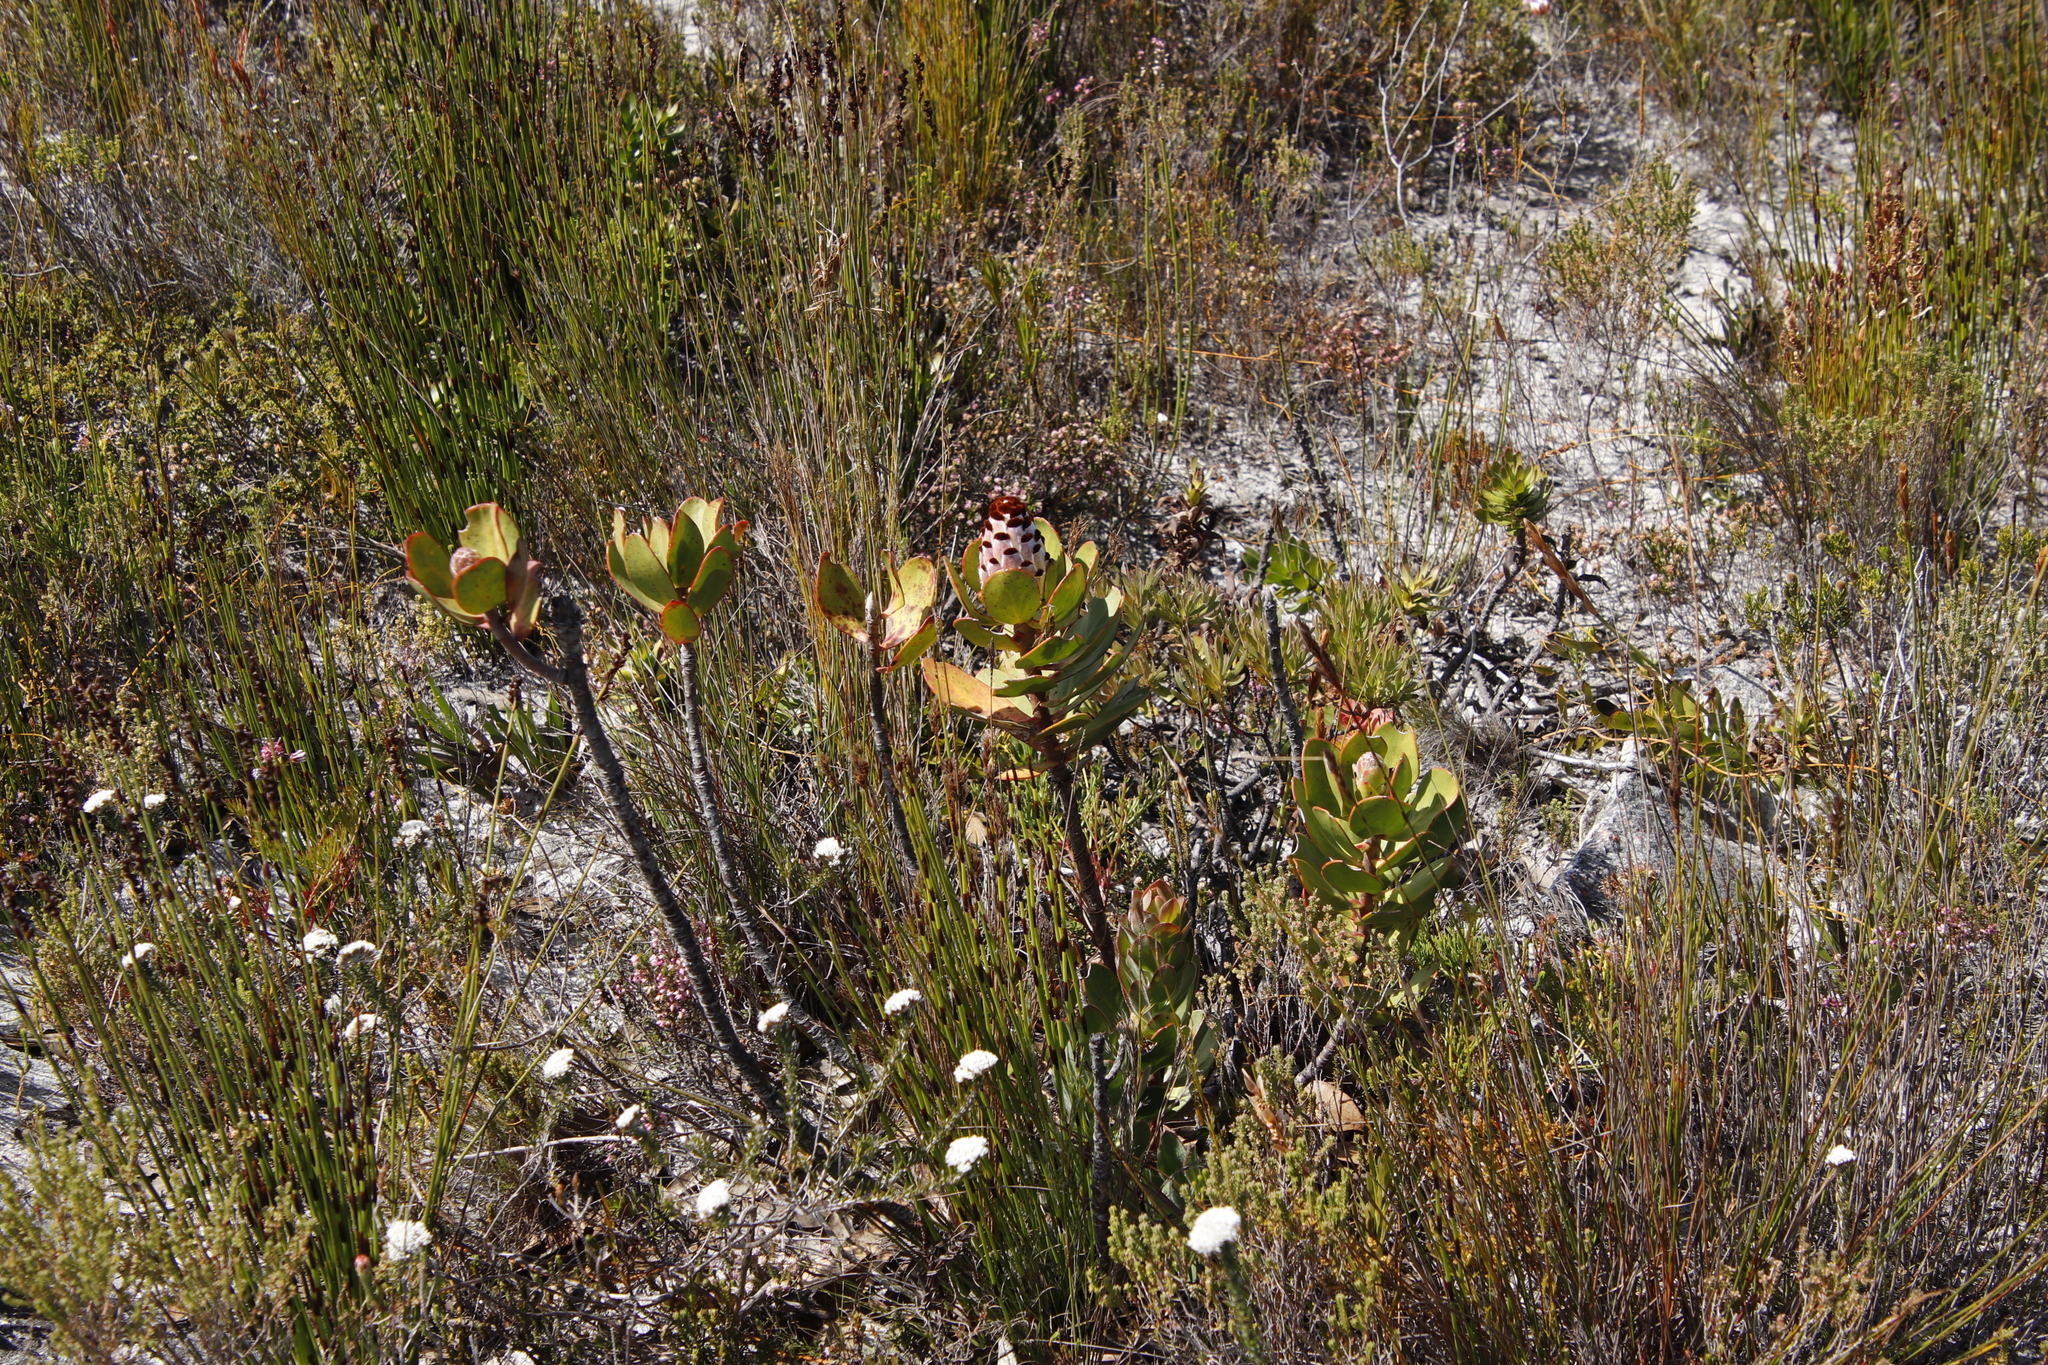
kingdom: Plantae
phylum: Tracheophyta
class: Magnoliopsida
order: Proteales
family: Proteaceae
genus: Protea
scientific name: Protea speciosa
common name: Brown-beard sugarbush
